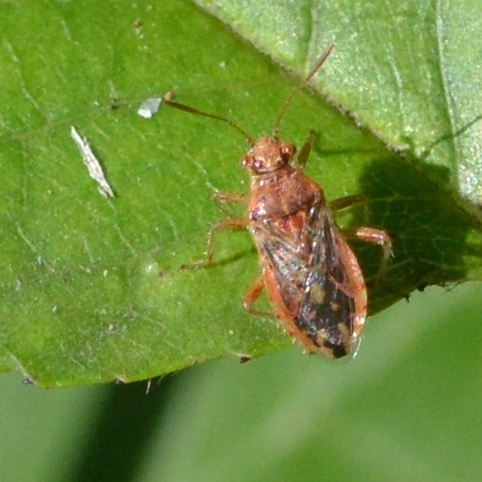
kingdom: Animalia
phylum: Arthropoda
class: Insecta
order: Hemiptera
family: Rhopalidae
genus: Rhopalus
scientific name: Rhopalus parumpunctatus
